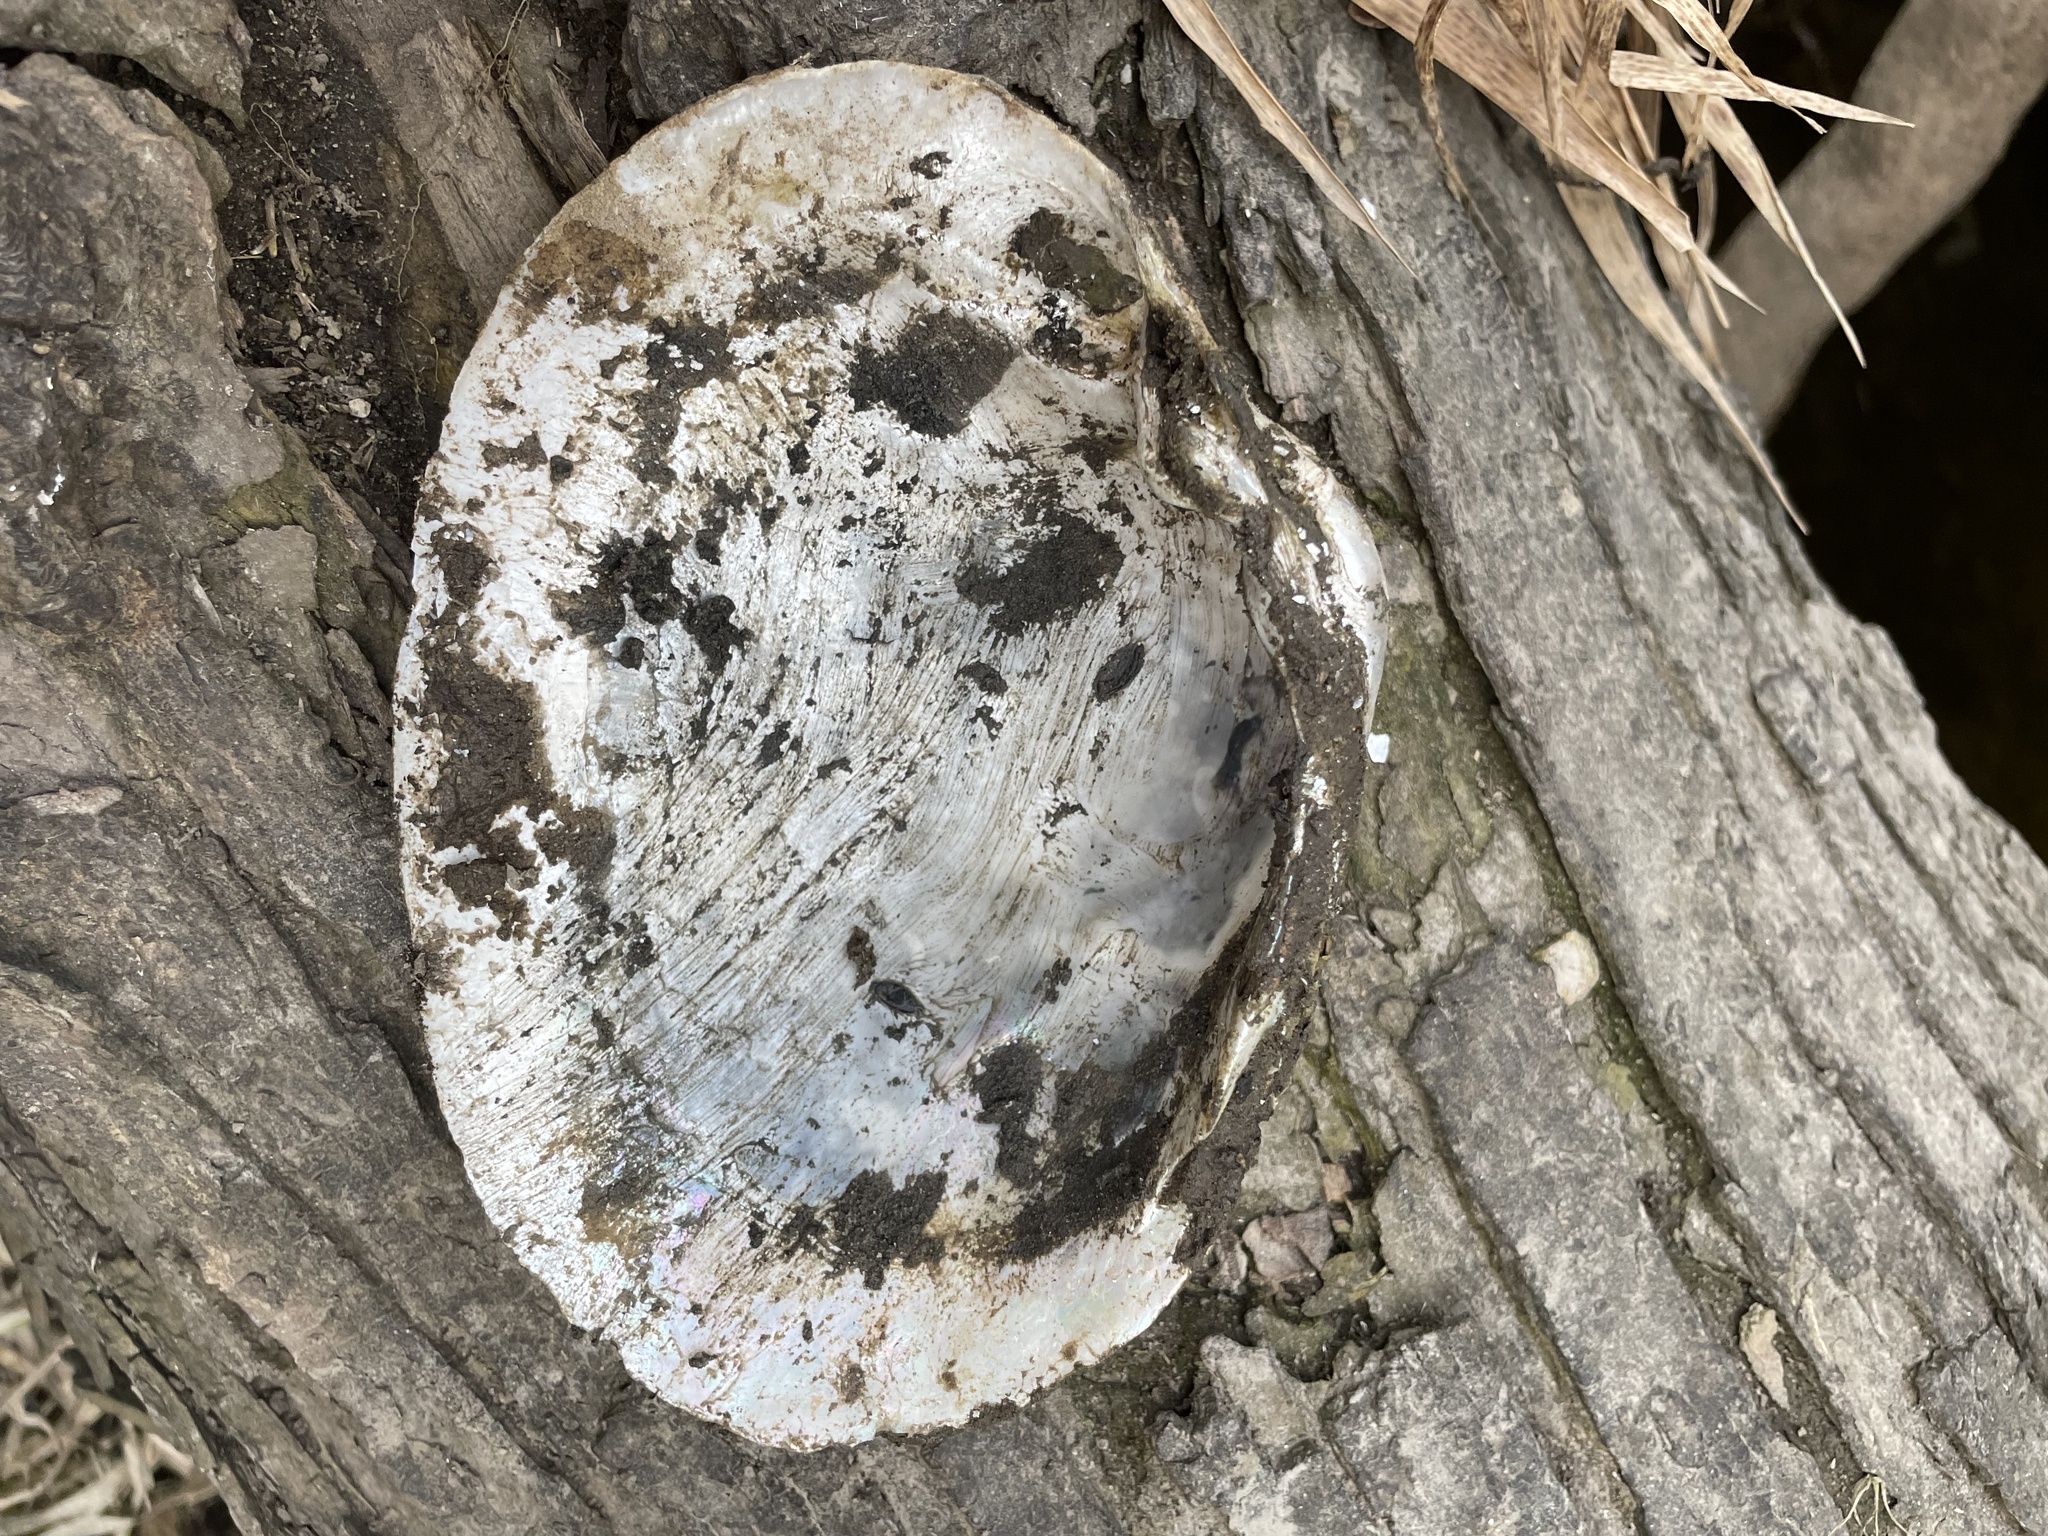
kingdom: Animalia
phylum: Mollusca
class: Bivalvia
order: Unionida
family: Unionidae
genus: Lampsilis
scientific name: Lampsilis cardium
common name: Plain pocketbook
